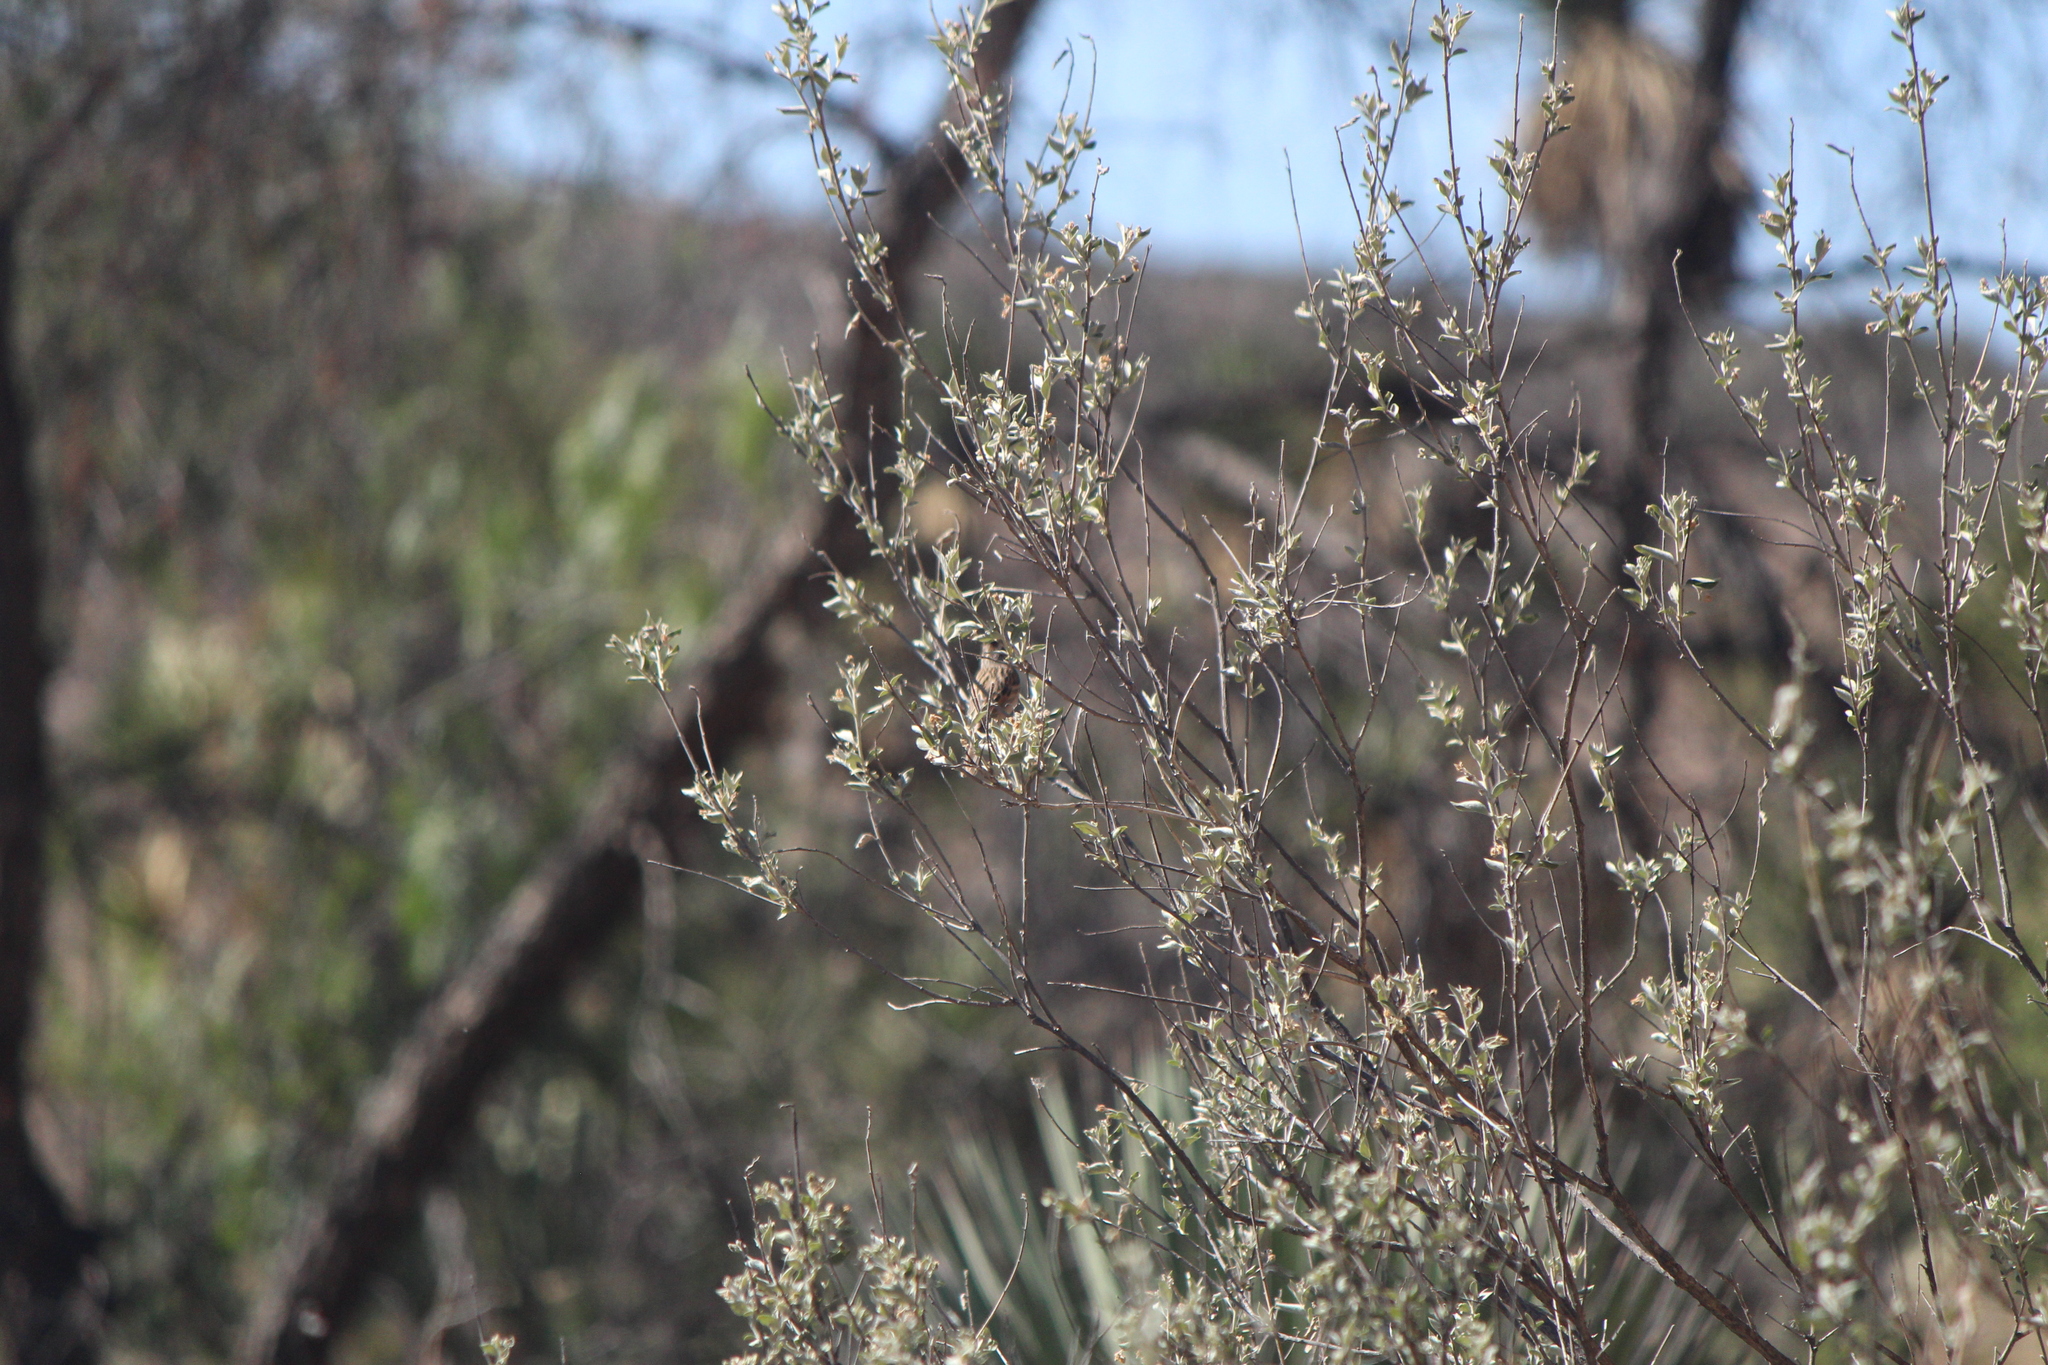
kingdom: Animalia
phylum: Chordata
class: Aves
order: Passeriformes
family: Passerellidae
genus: Spizella
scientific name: Spizella pallida
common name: Clay-colored sparrow
